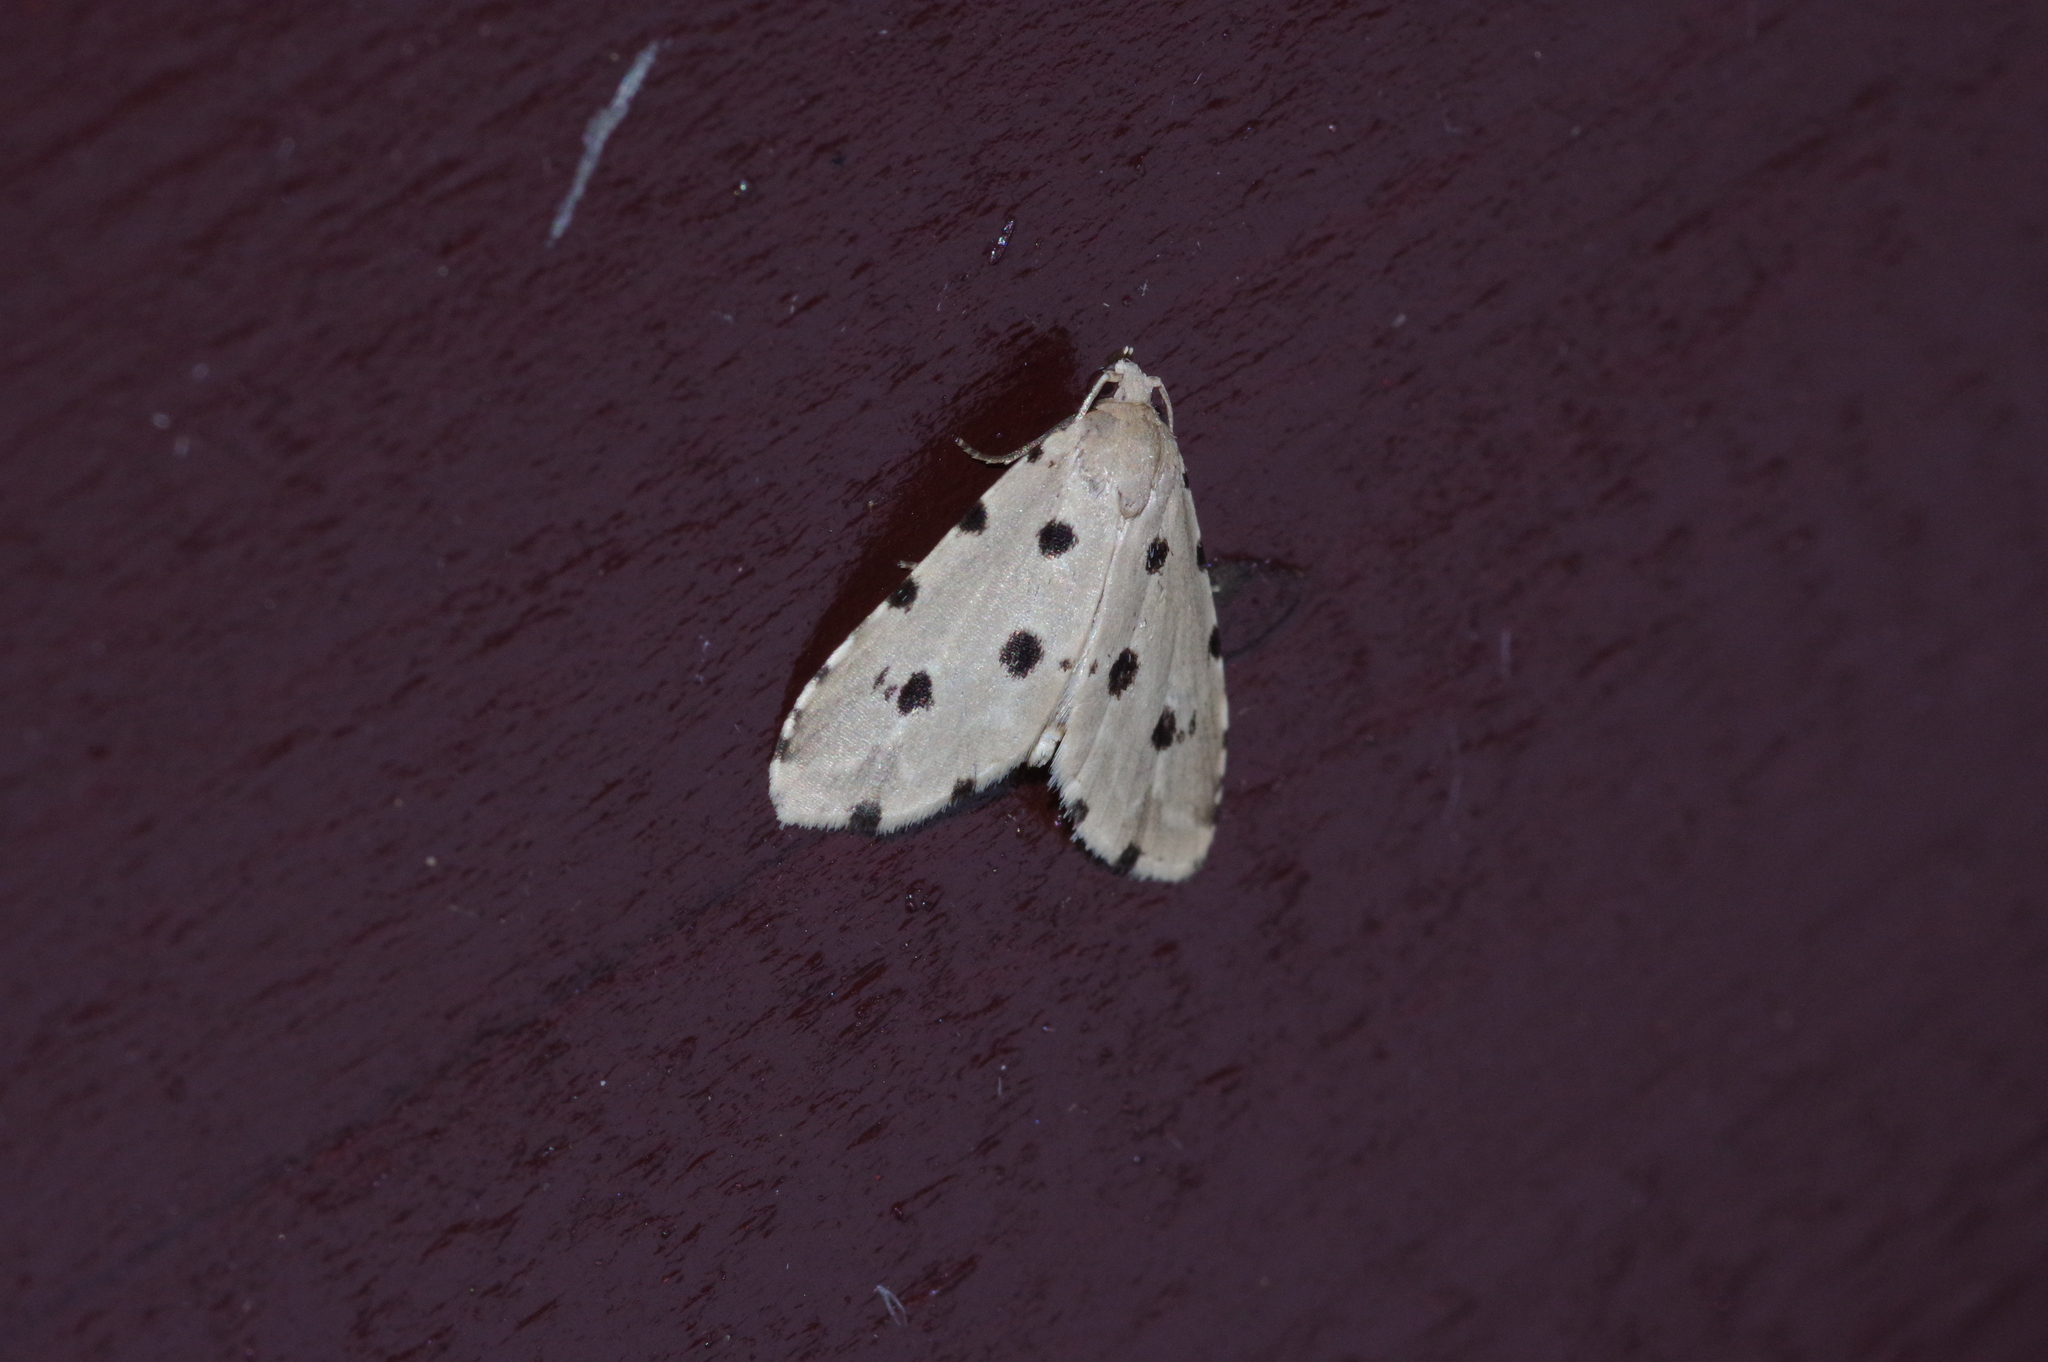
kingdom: Animalia
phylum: Arthropoda
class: Insecta
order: Lepidoptera
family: Noctuidae
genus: Metaemene
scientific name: Metaemene atrigutta
